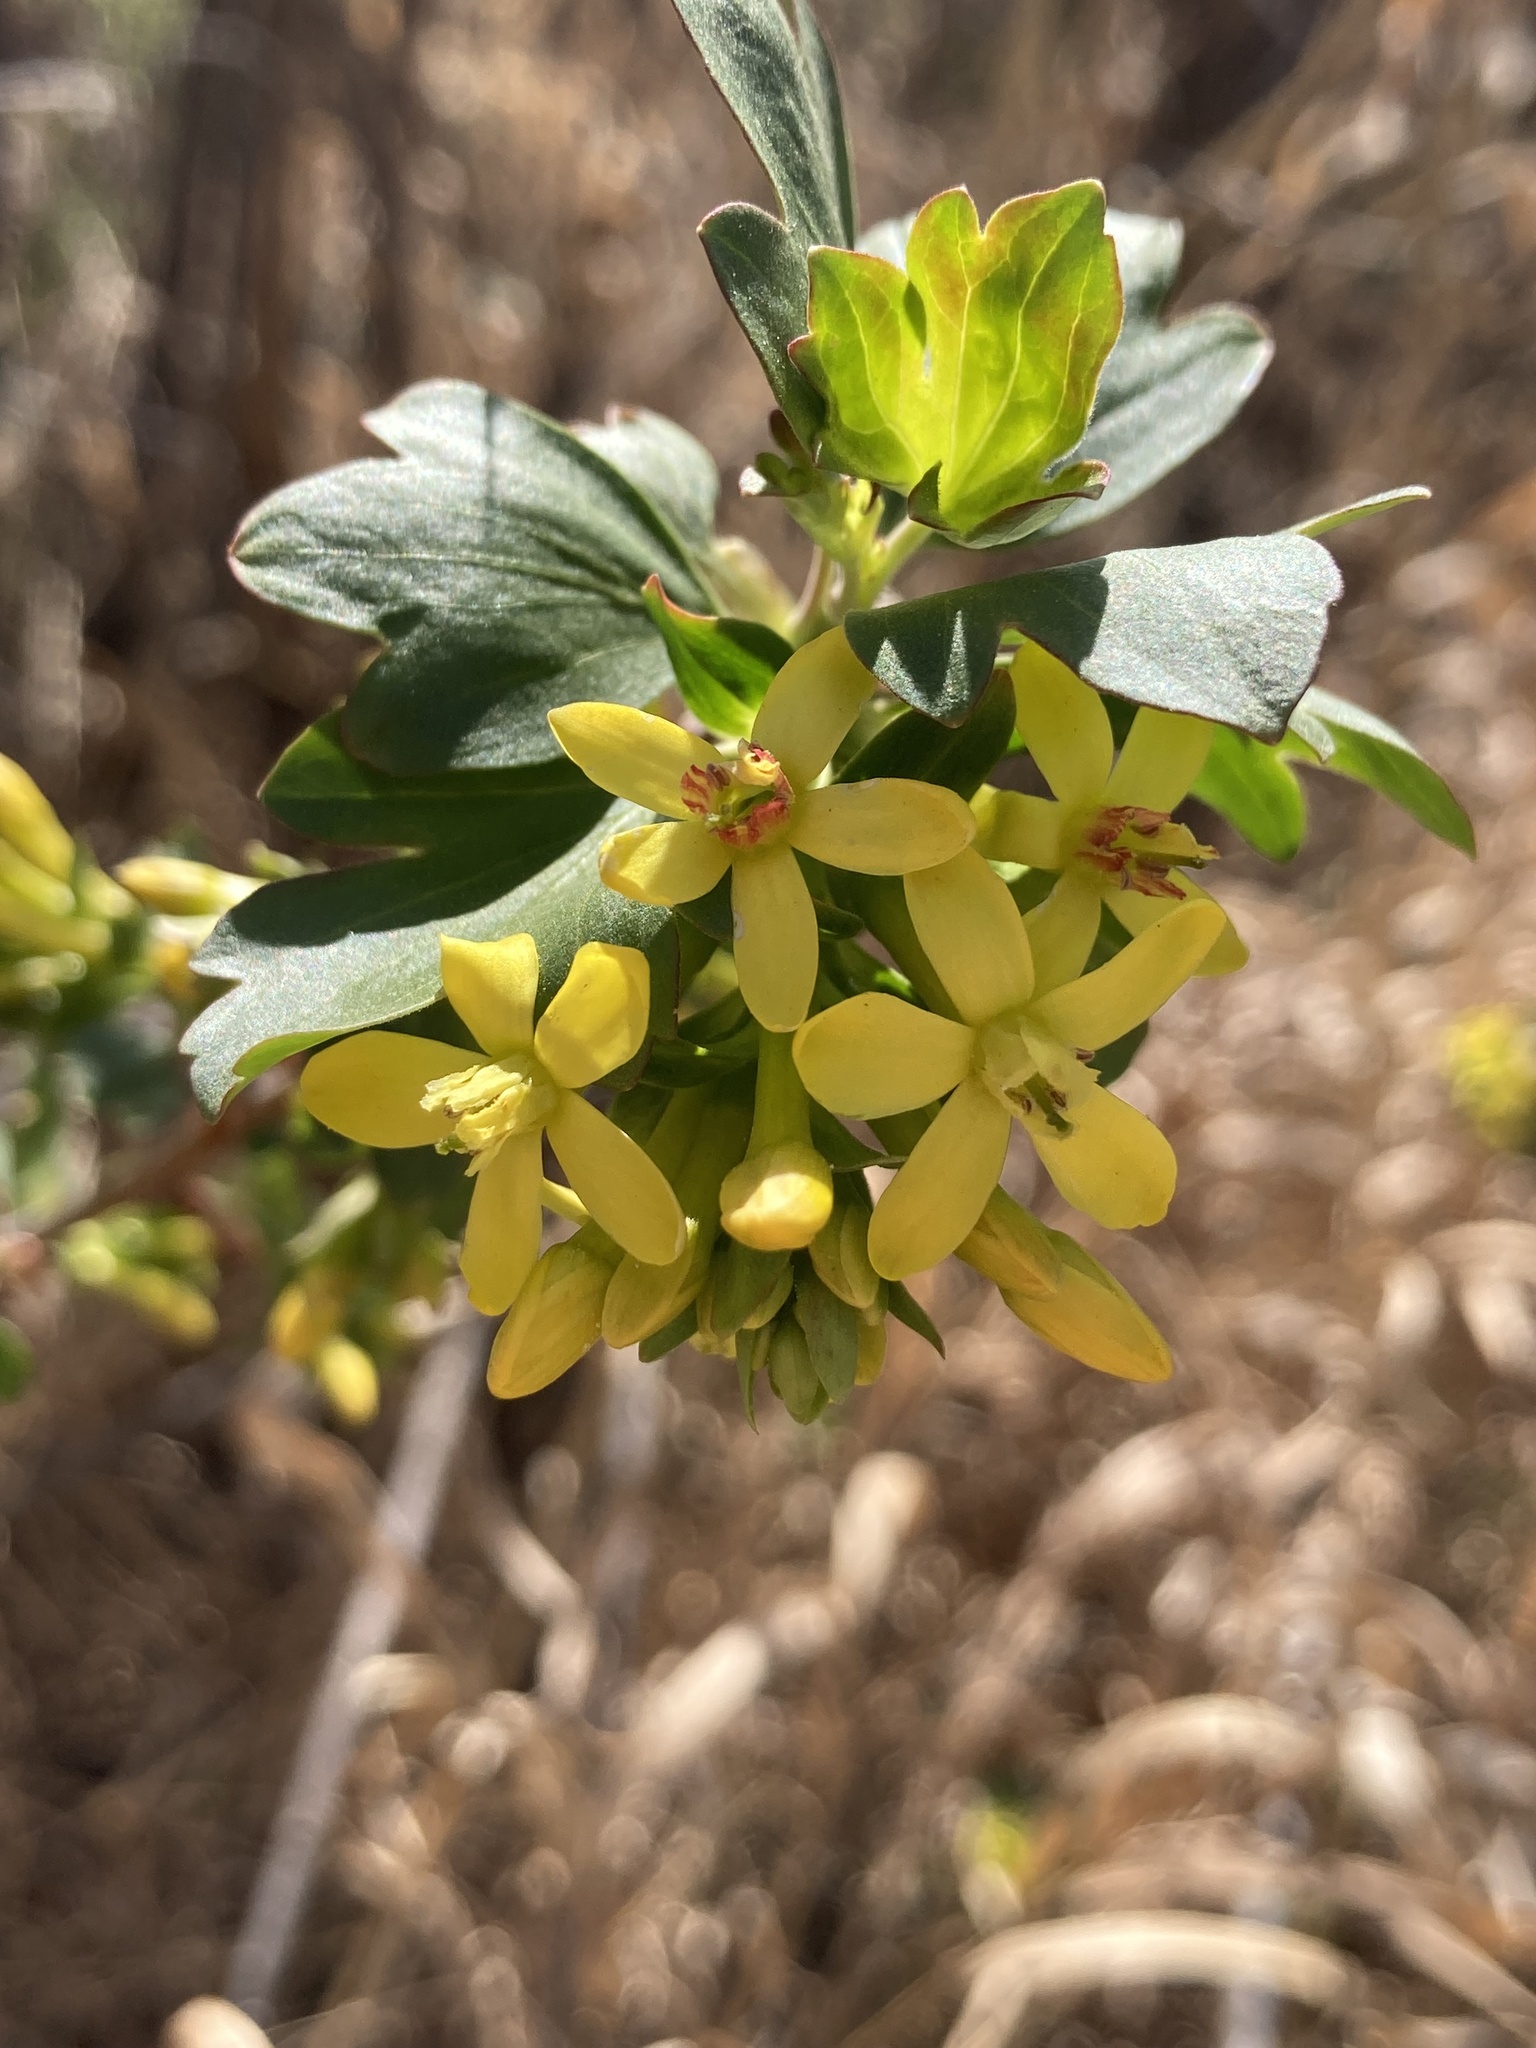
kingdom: Plantae
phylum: Tracheophyta
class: Magnoliopsida
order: Saxifragales
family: Grossulariaceae
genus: Ribes
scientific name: Ribes aureum
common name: Golden currant
